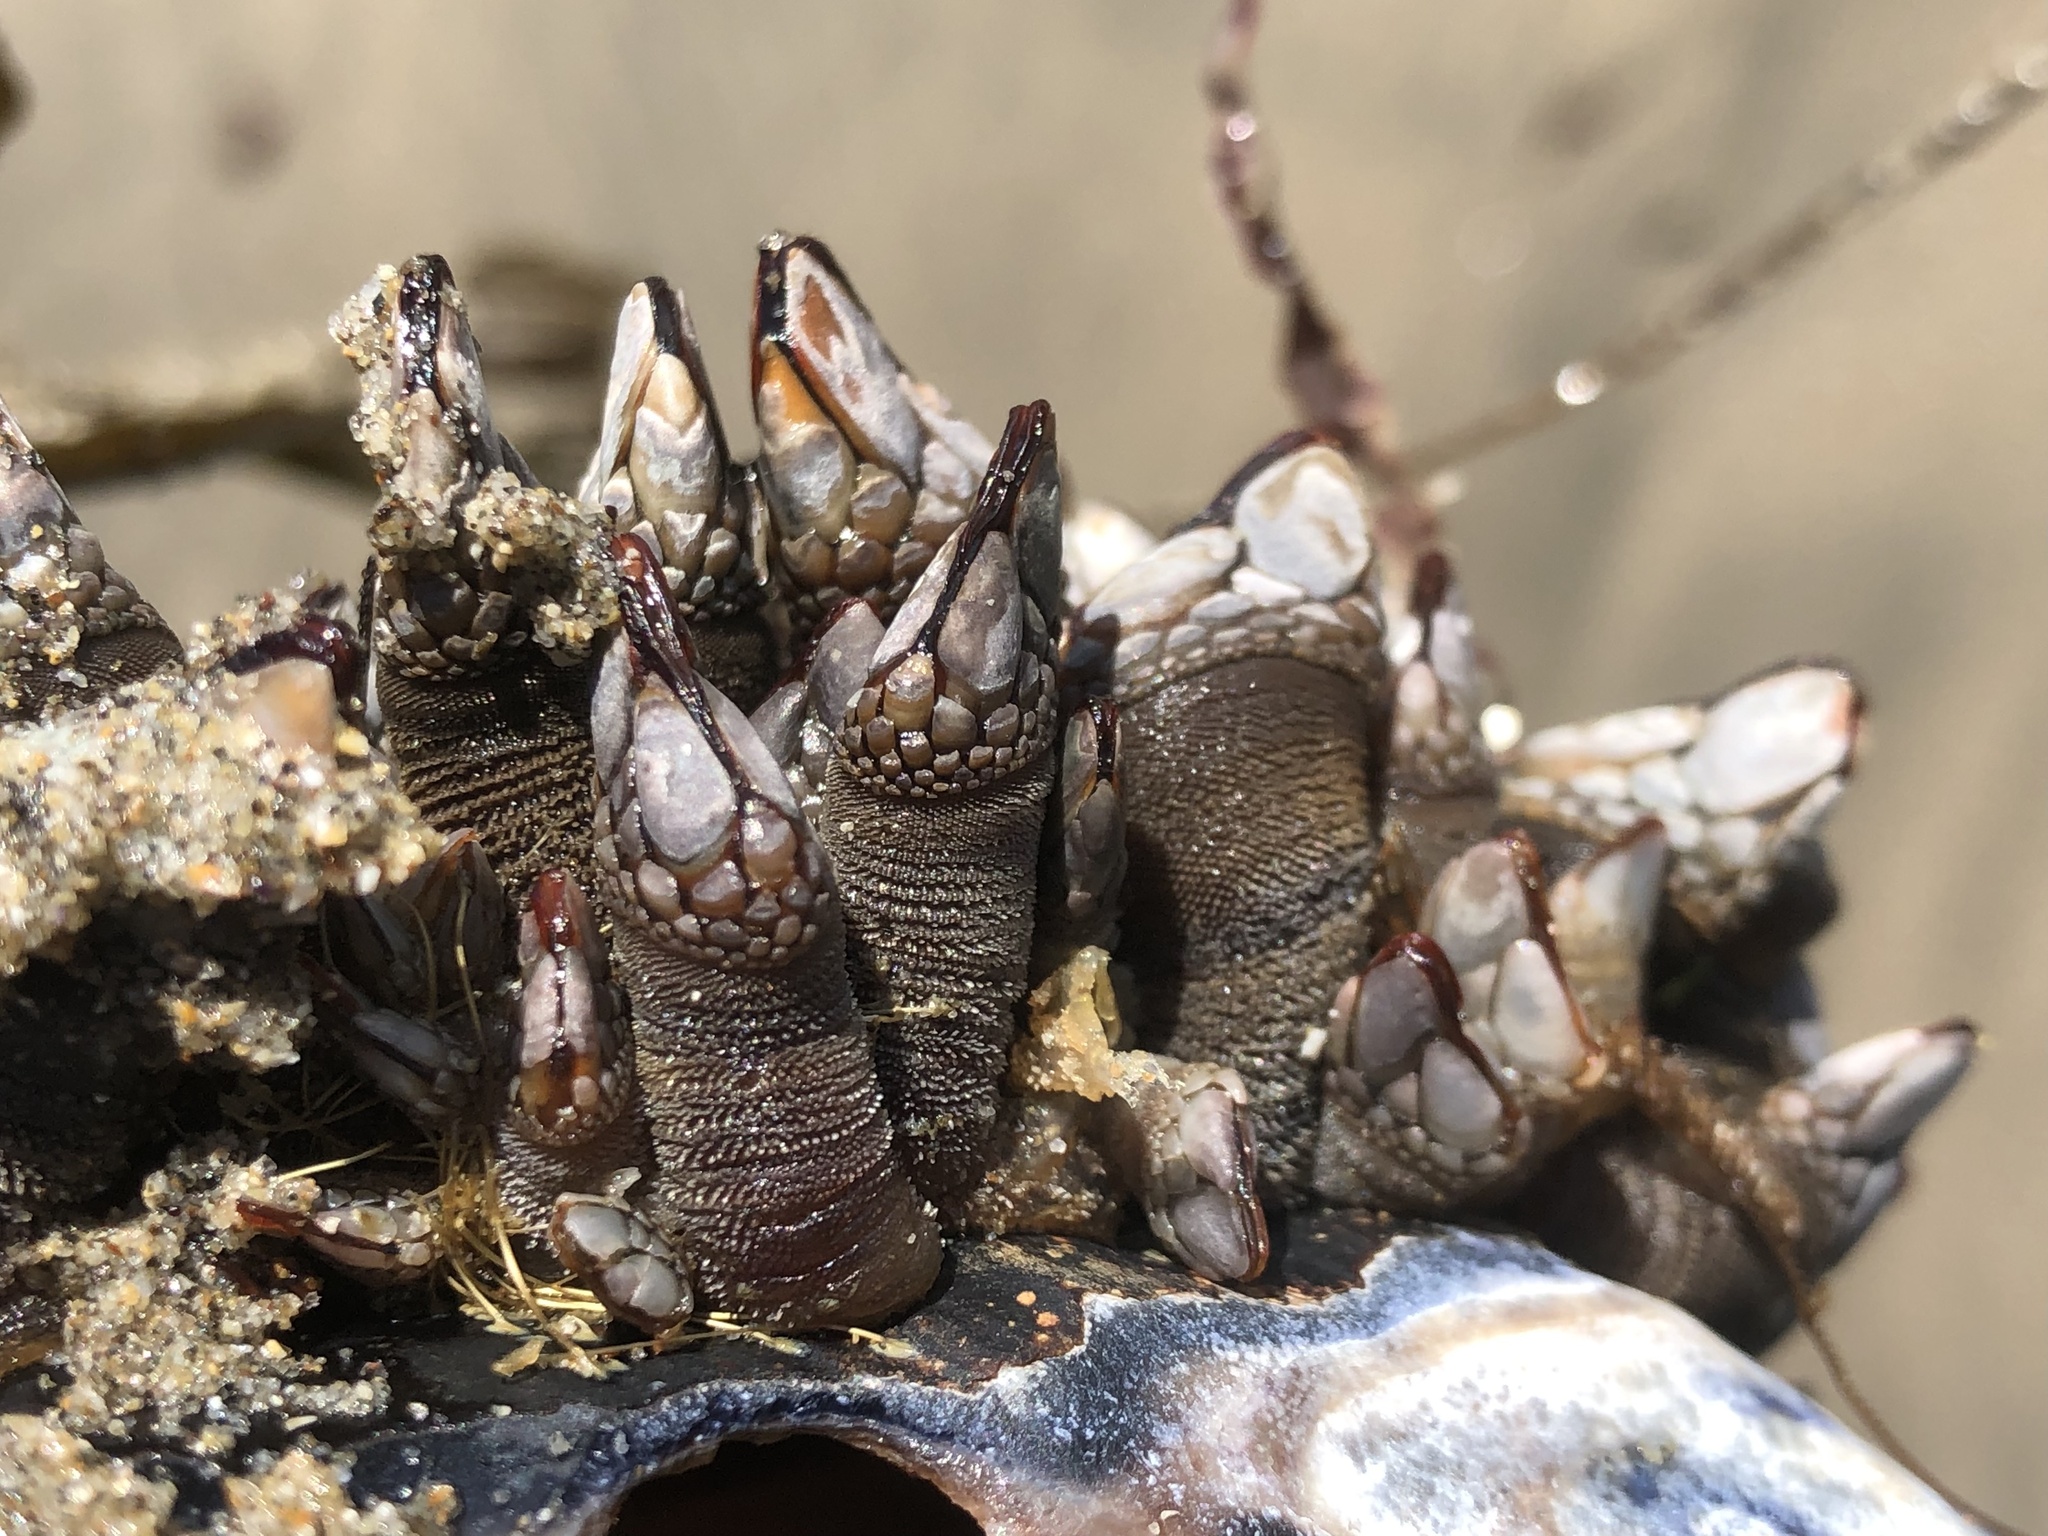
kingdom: Animalia
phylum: Arthropoda
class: Maxillopoda
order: Pedunculata
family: Pollicipedidae
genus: Pollicipes
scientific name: Pollicipes polymerus
